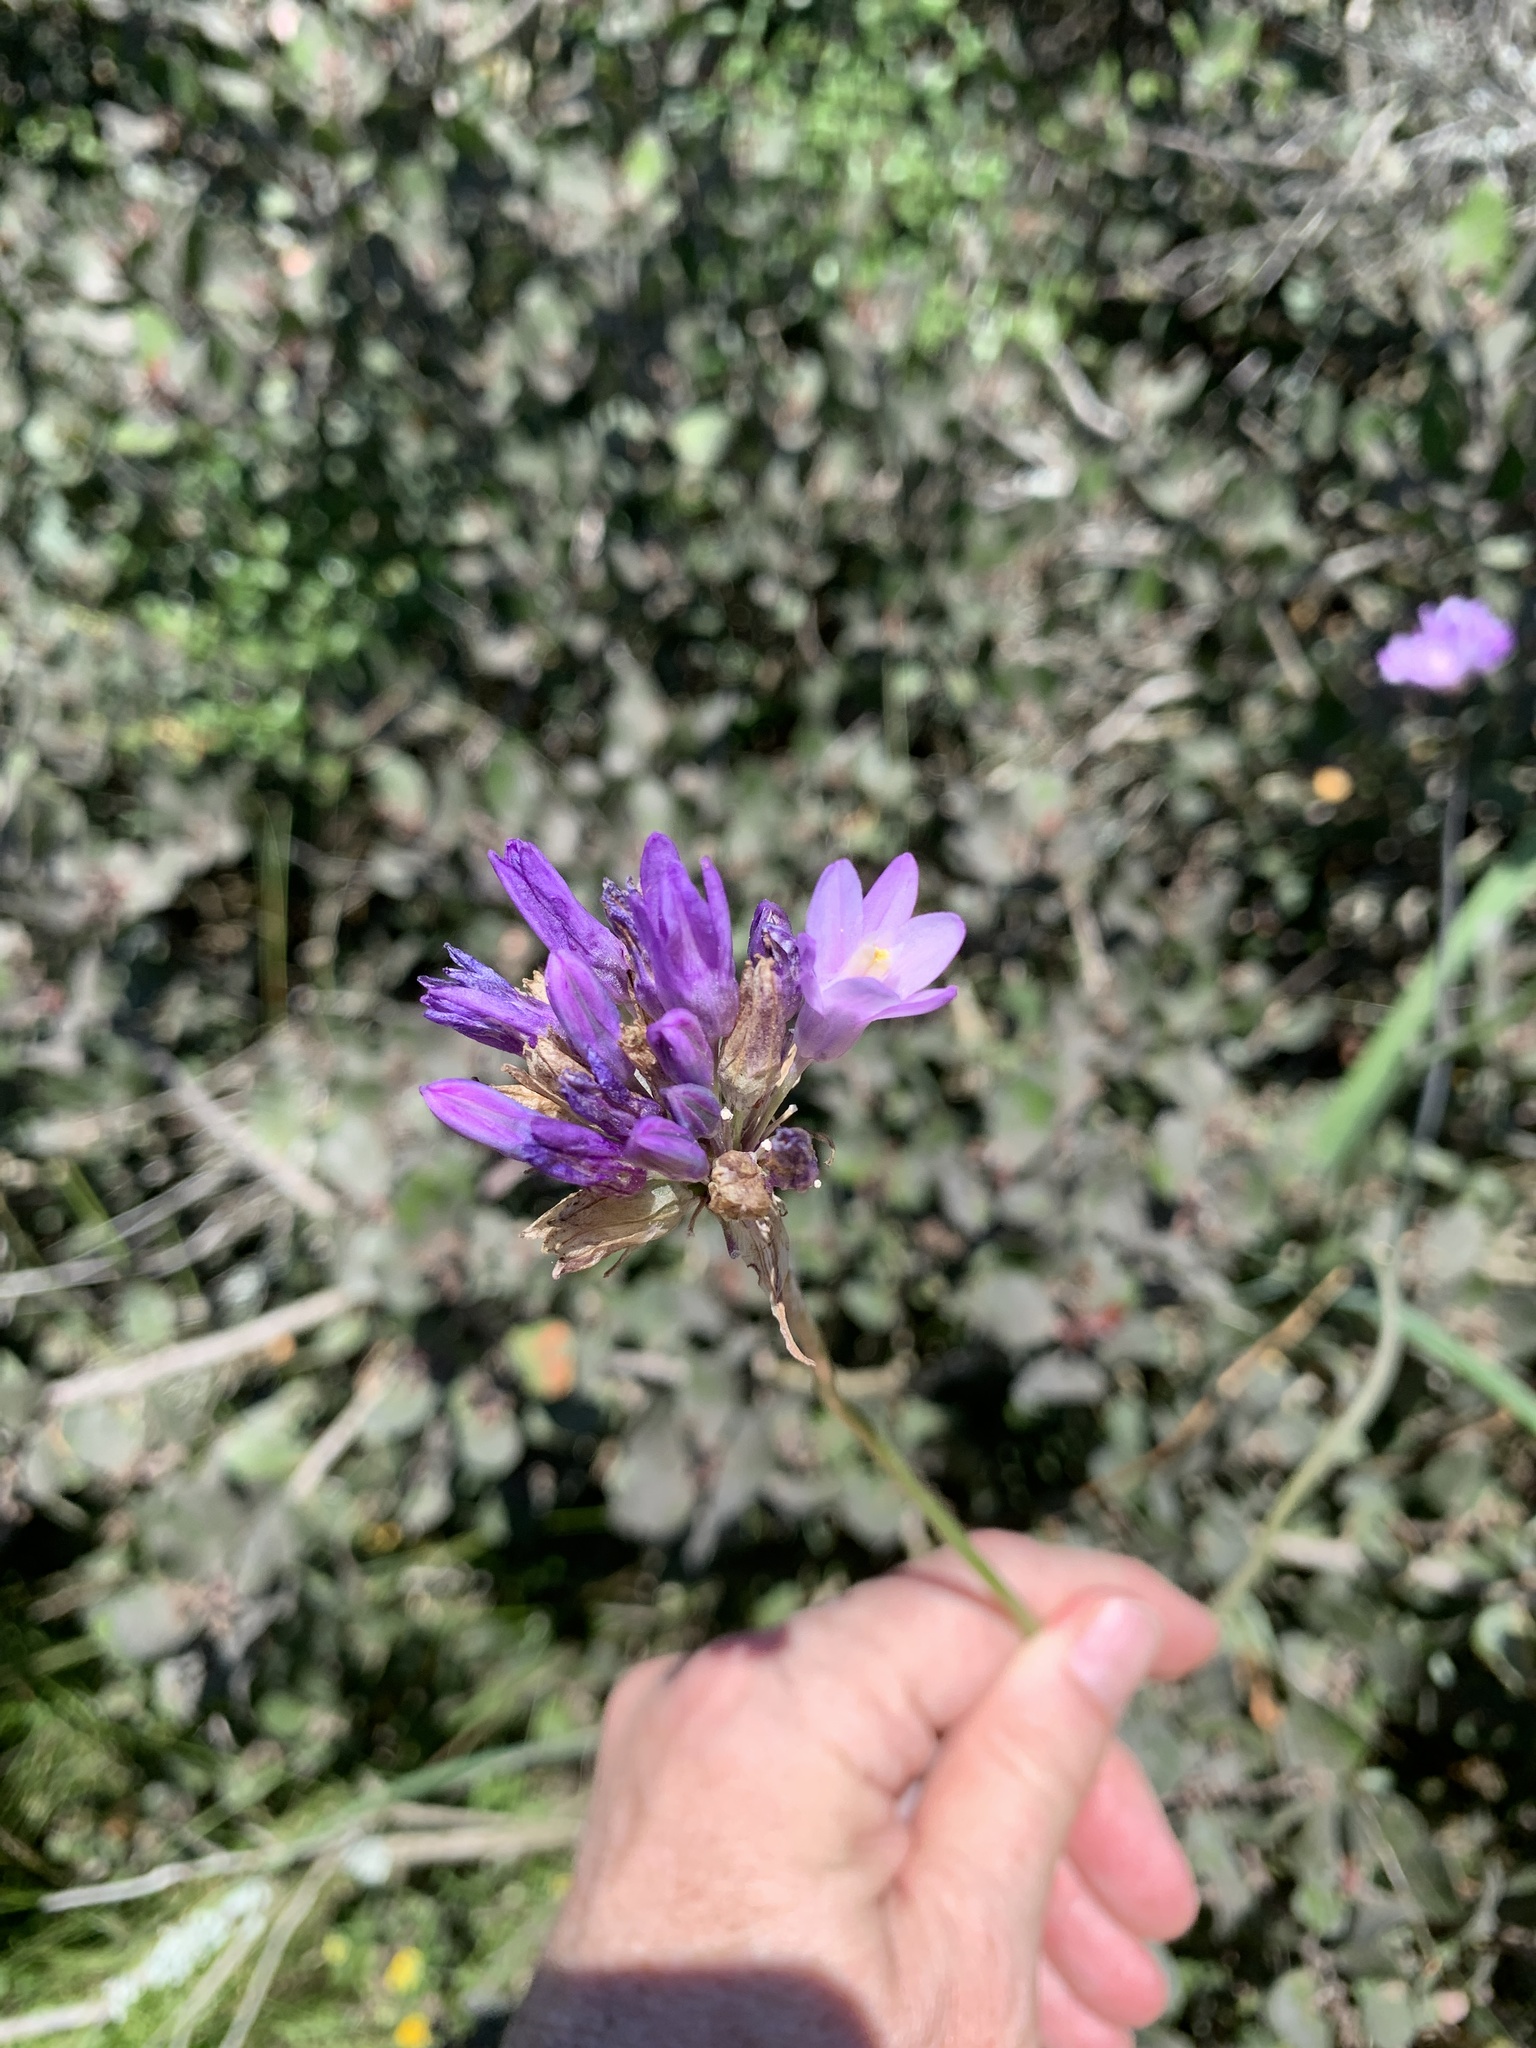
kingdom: Plantae
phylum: Tracheophyta
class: Liliopsida
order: Asparagales
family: Asparagaceae
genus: Dipterostemon
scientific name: Dipterostemon capitatus
